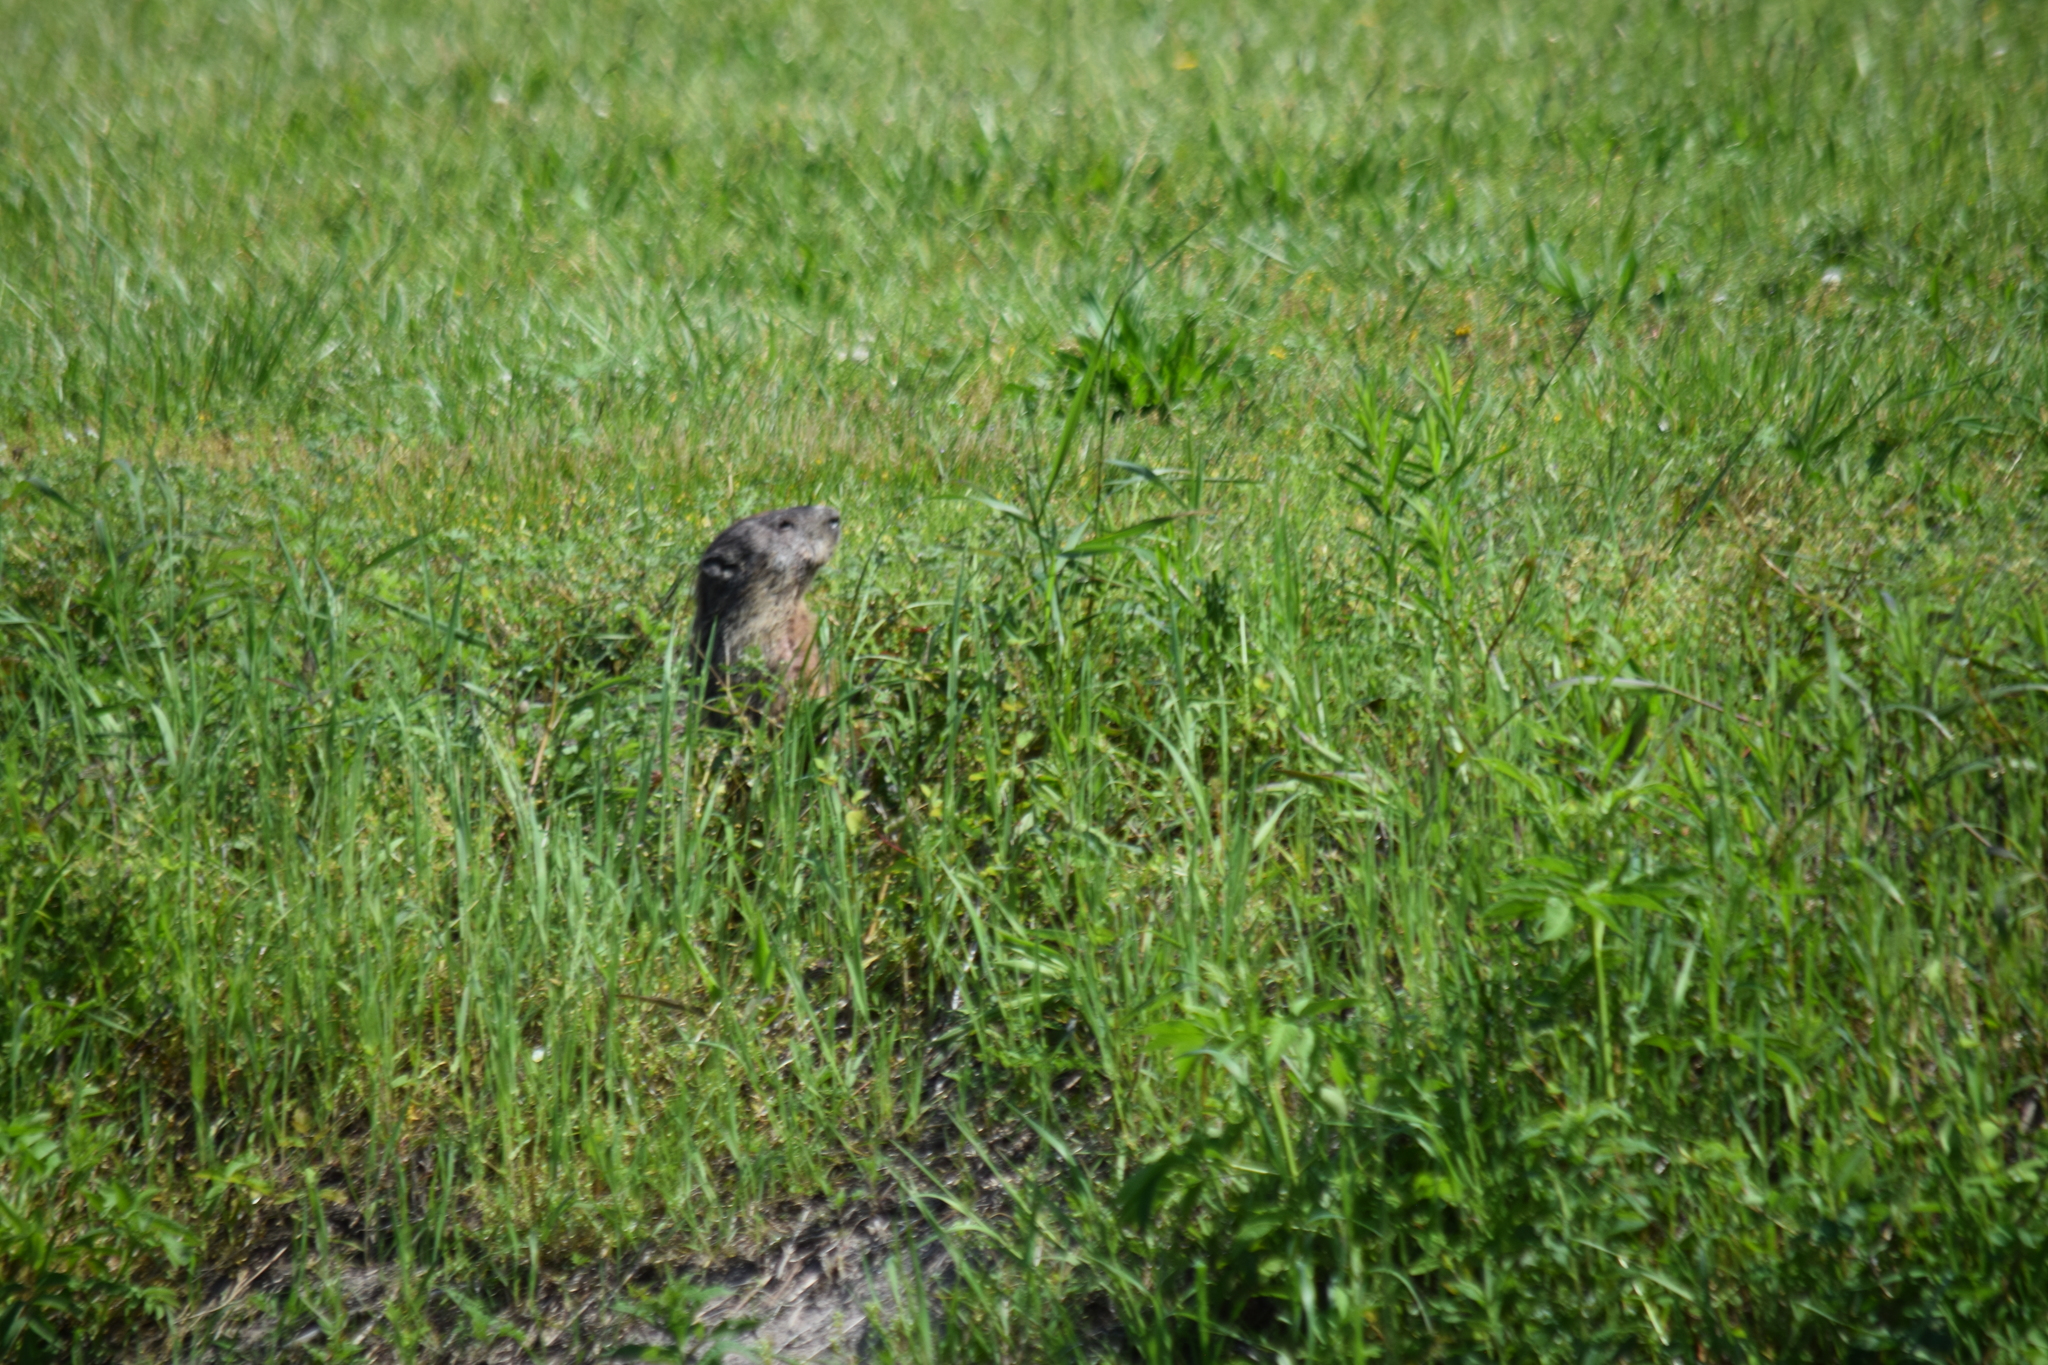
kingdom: Animalia
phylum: Chordata
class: Mammalia
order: Rodentia
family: Sciuridae
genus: Marmota
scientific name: Marmota monax
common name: Groundhog
